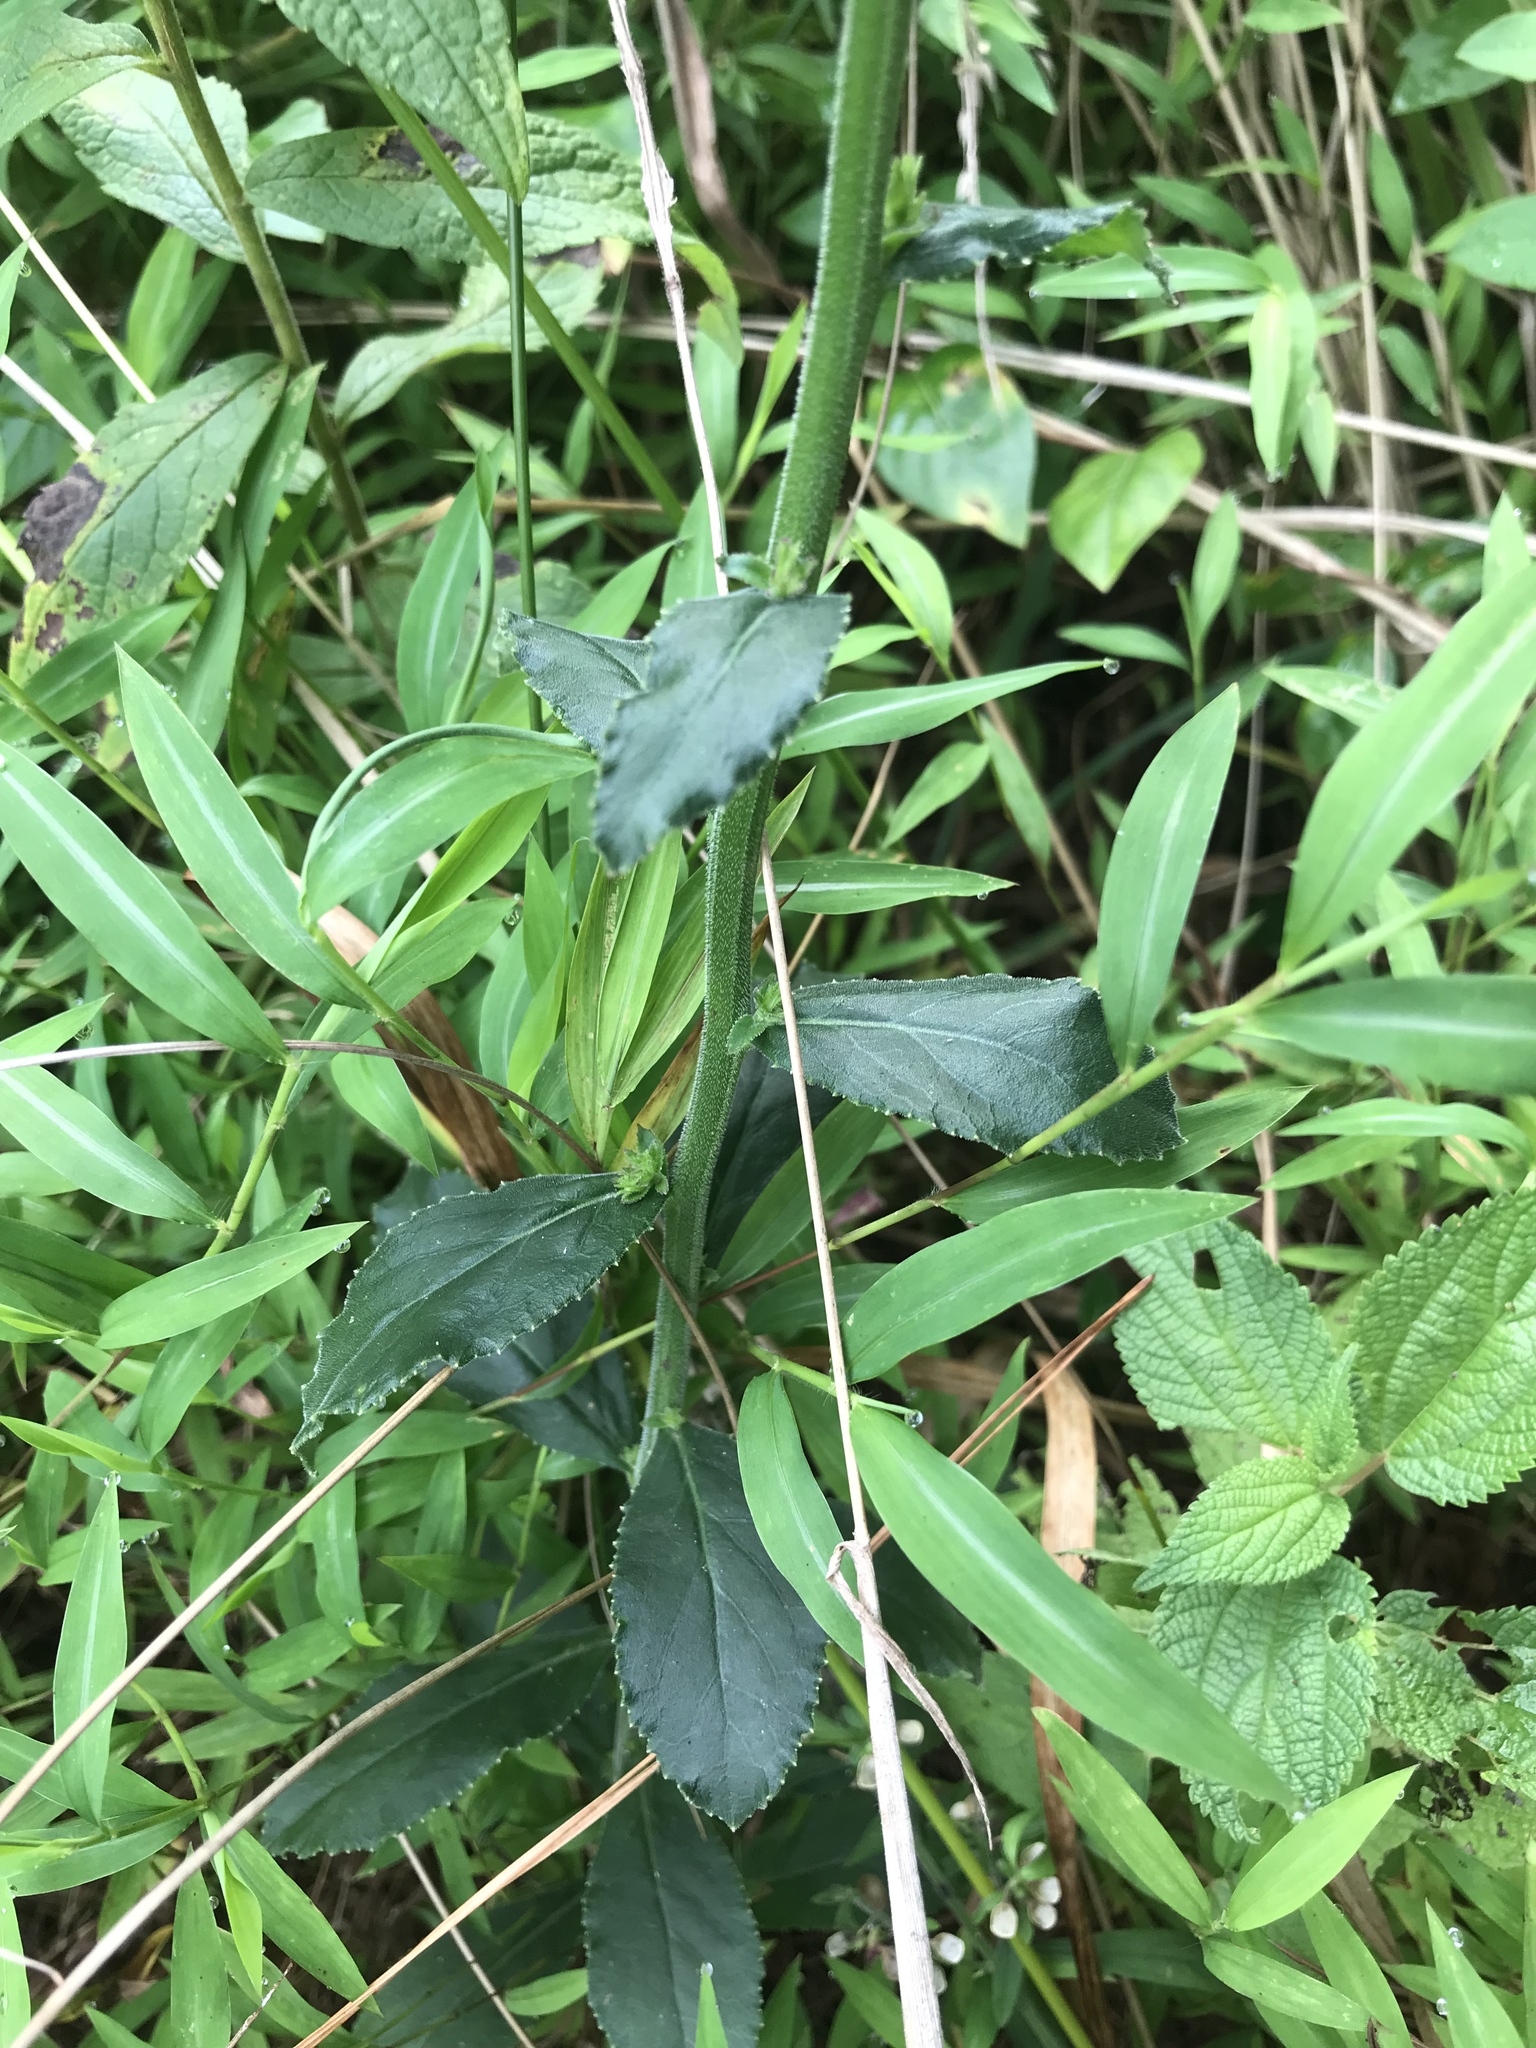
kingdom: Plantae
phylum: Tracheophyta
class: Magnoliopsida
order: Asterales
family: Campanulaceae
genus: Lobelia
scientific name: Lobelia puberula
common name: Purple dewdrop
